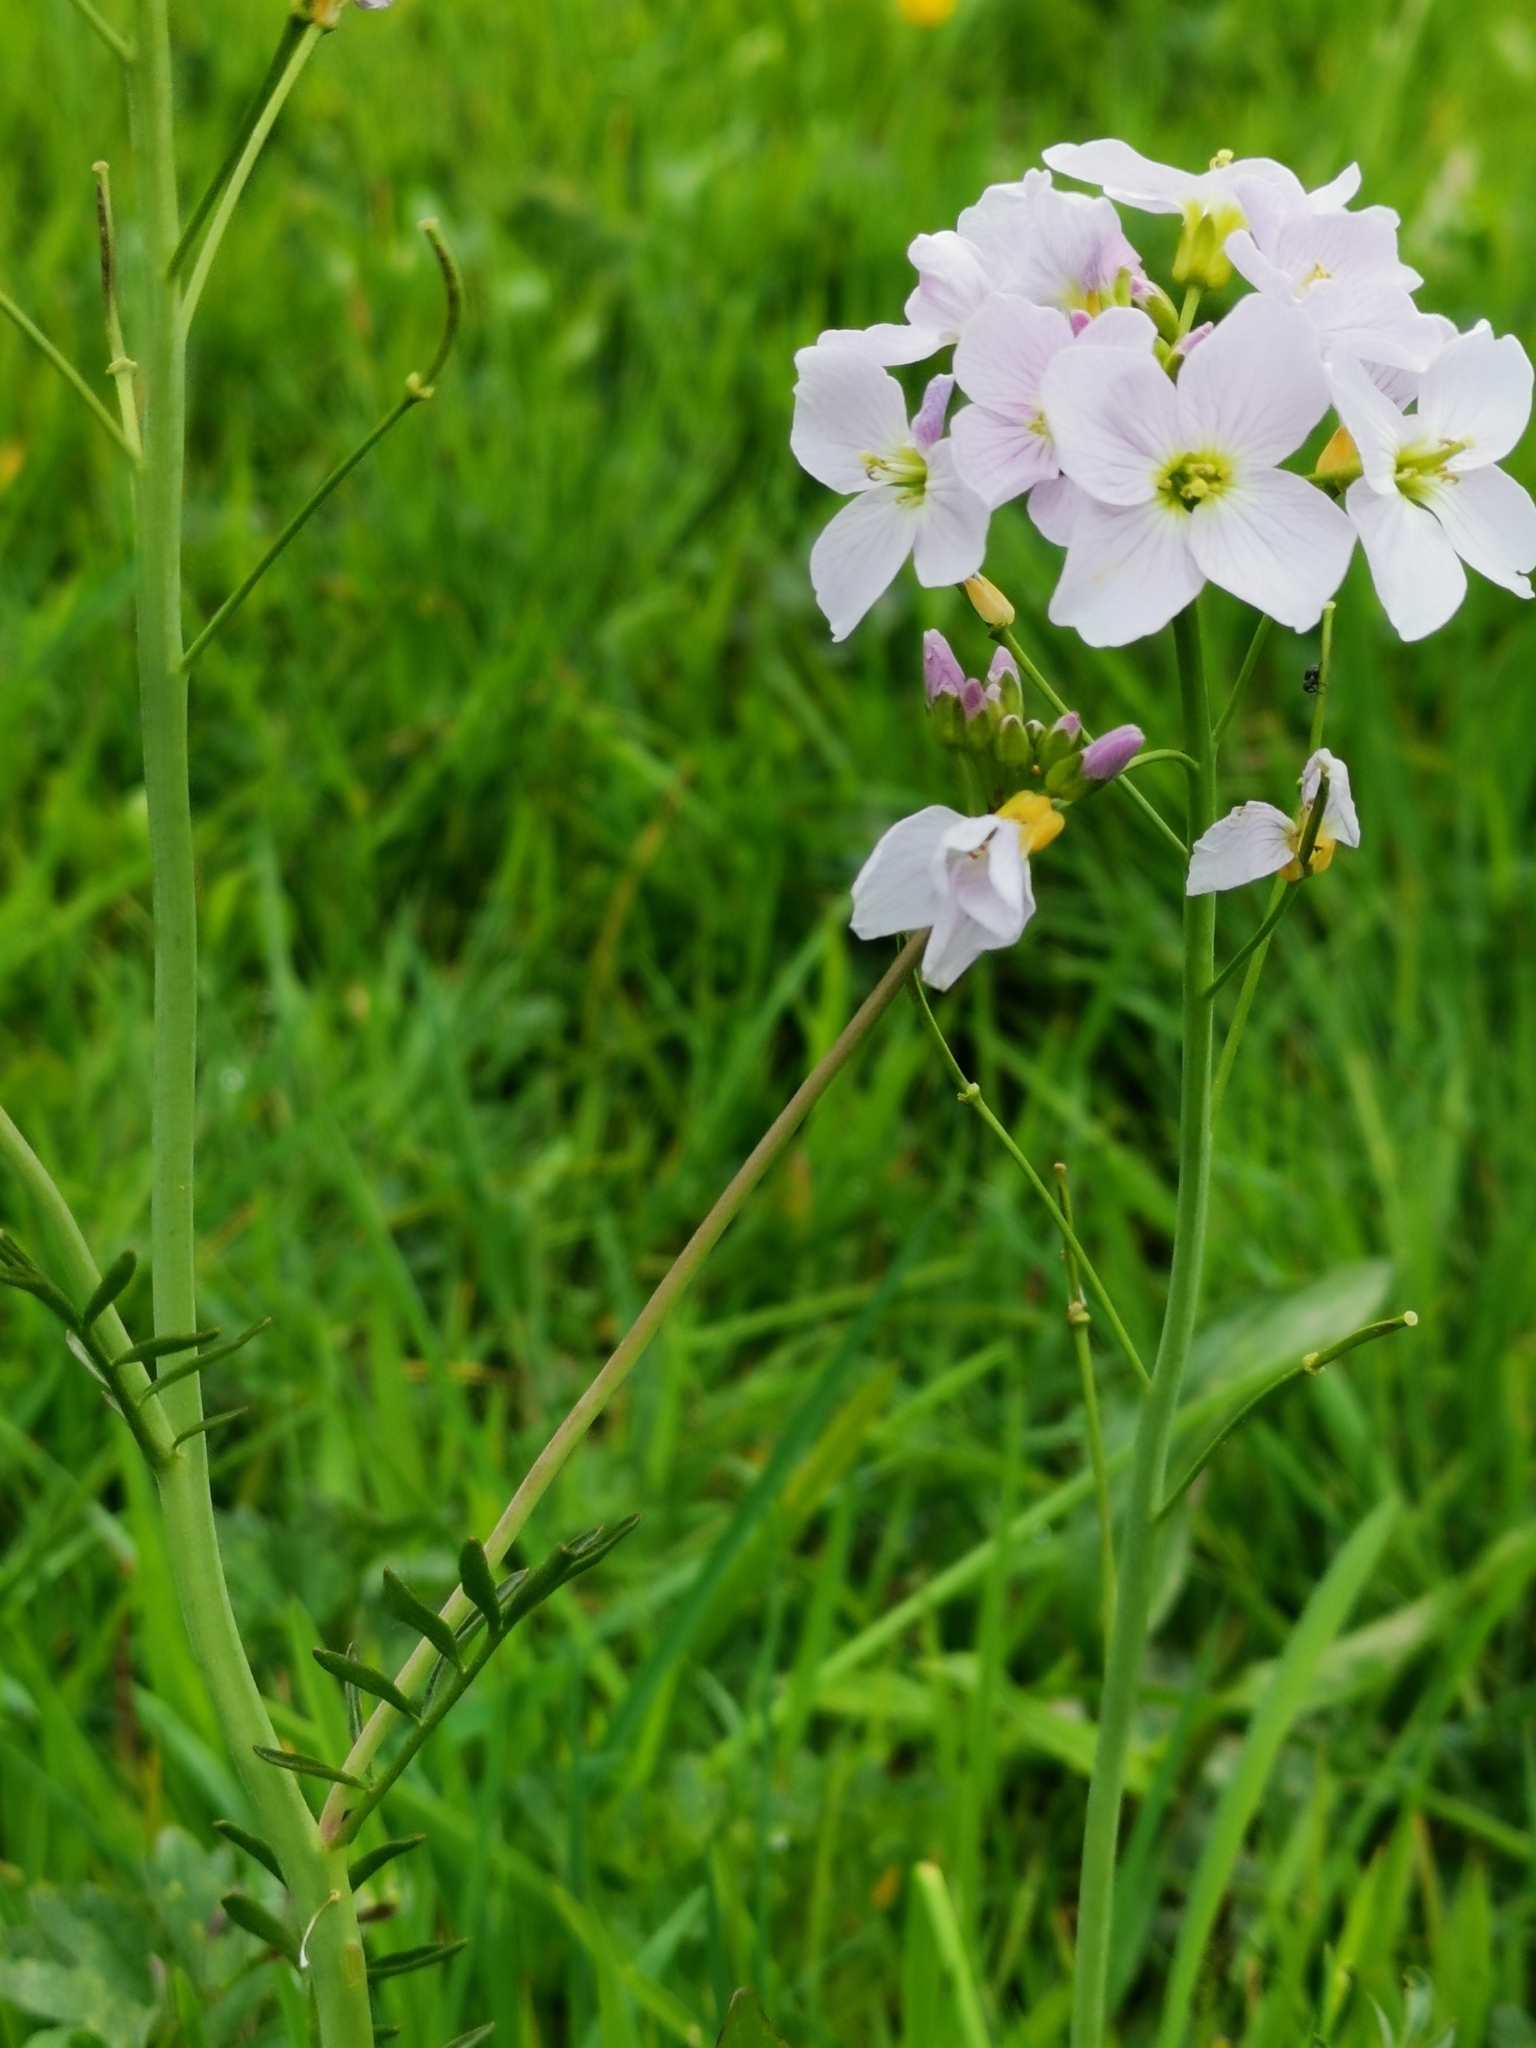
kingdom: Plantae
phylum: Tracheophyta
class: Magnoliopsida
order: Brassicales
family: Brassicaceae
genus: Cardamine
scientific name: Cardamine pratensis
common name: Cuckoo flower
